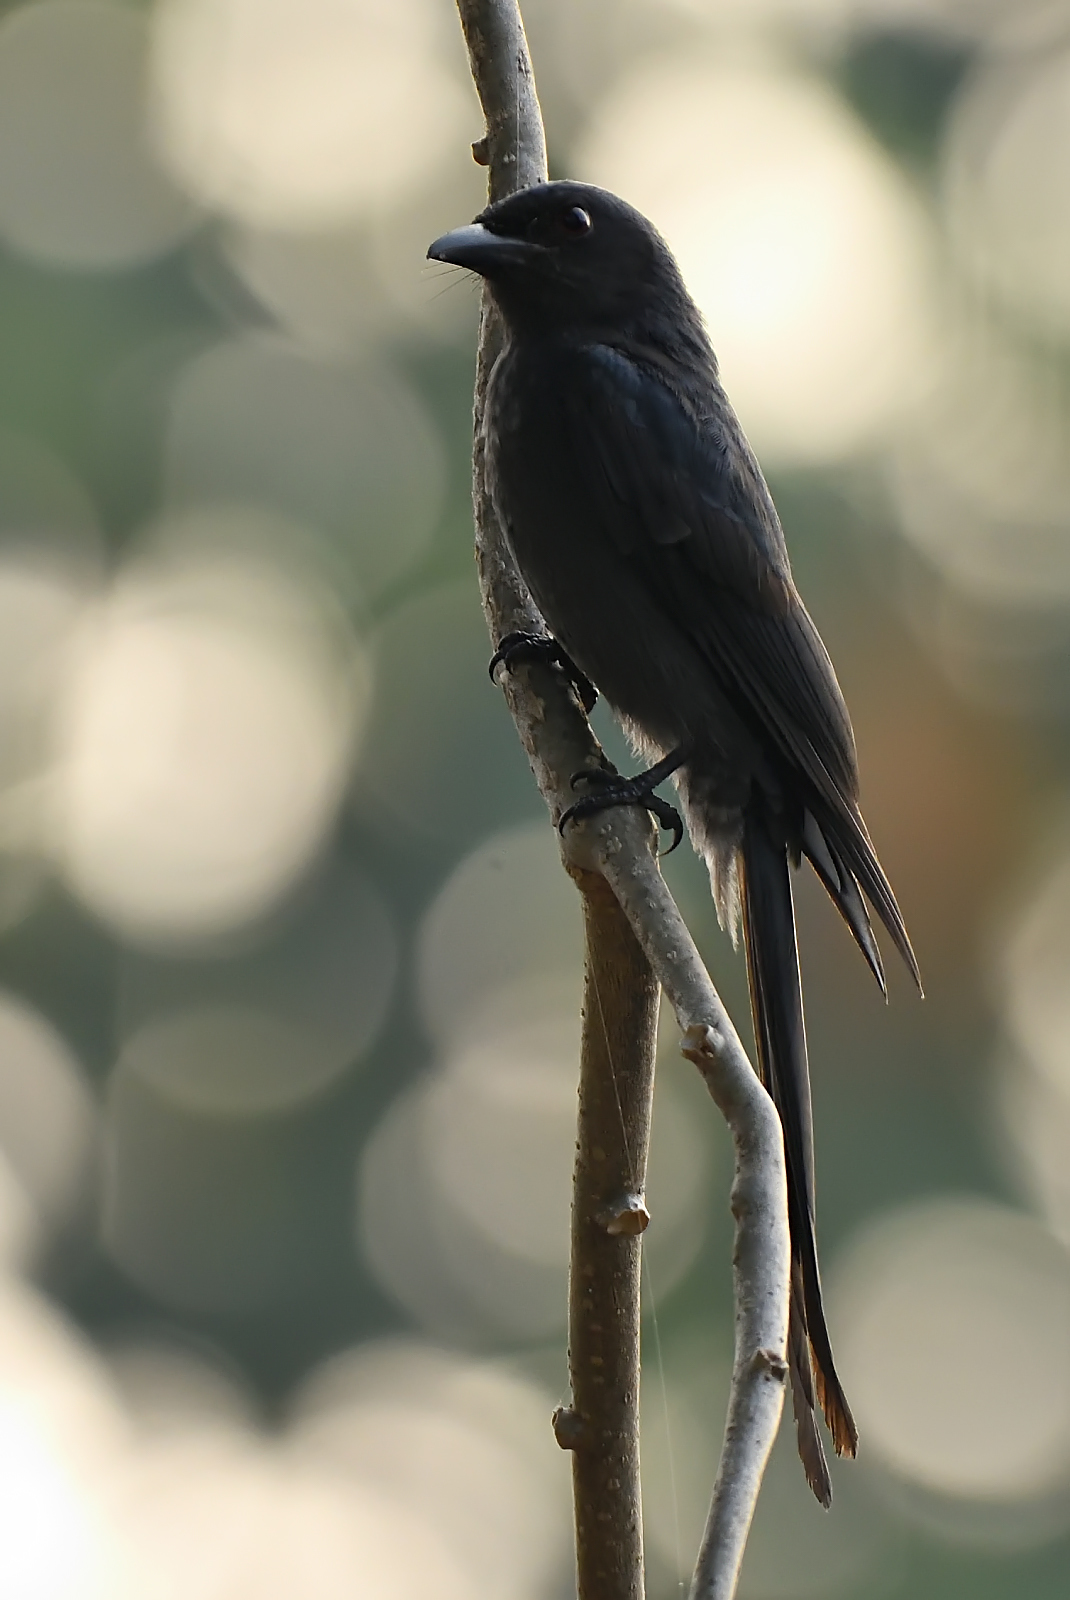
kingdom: Animalia
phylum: Chordata
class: Aves
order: Passeriformes
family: Dicruridae
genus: Dicrurus
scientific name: Dicrurus leucophaeus
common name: Ashy drongo
